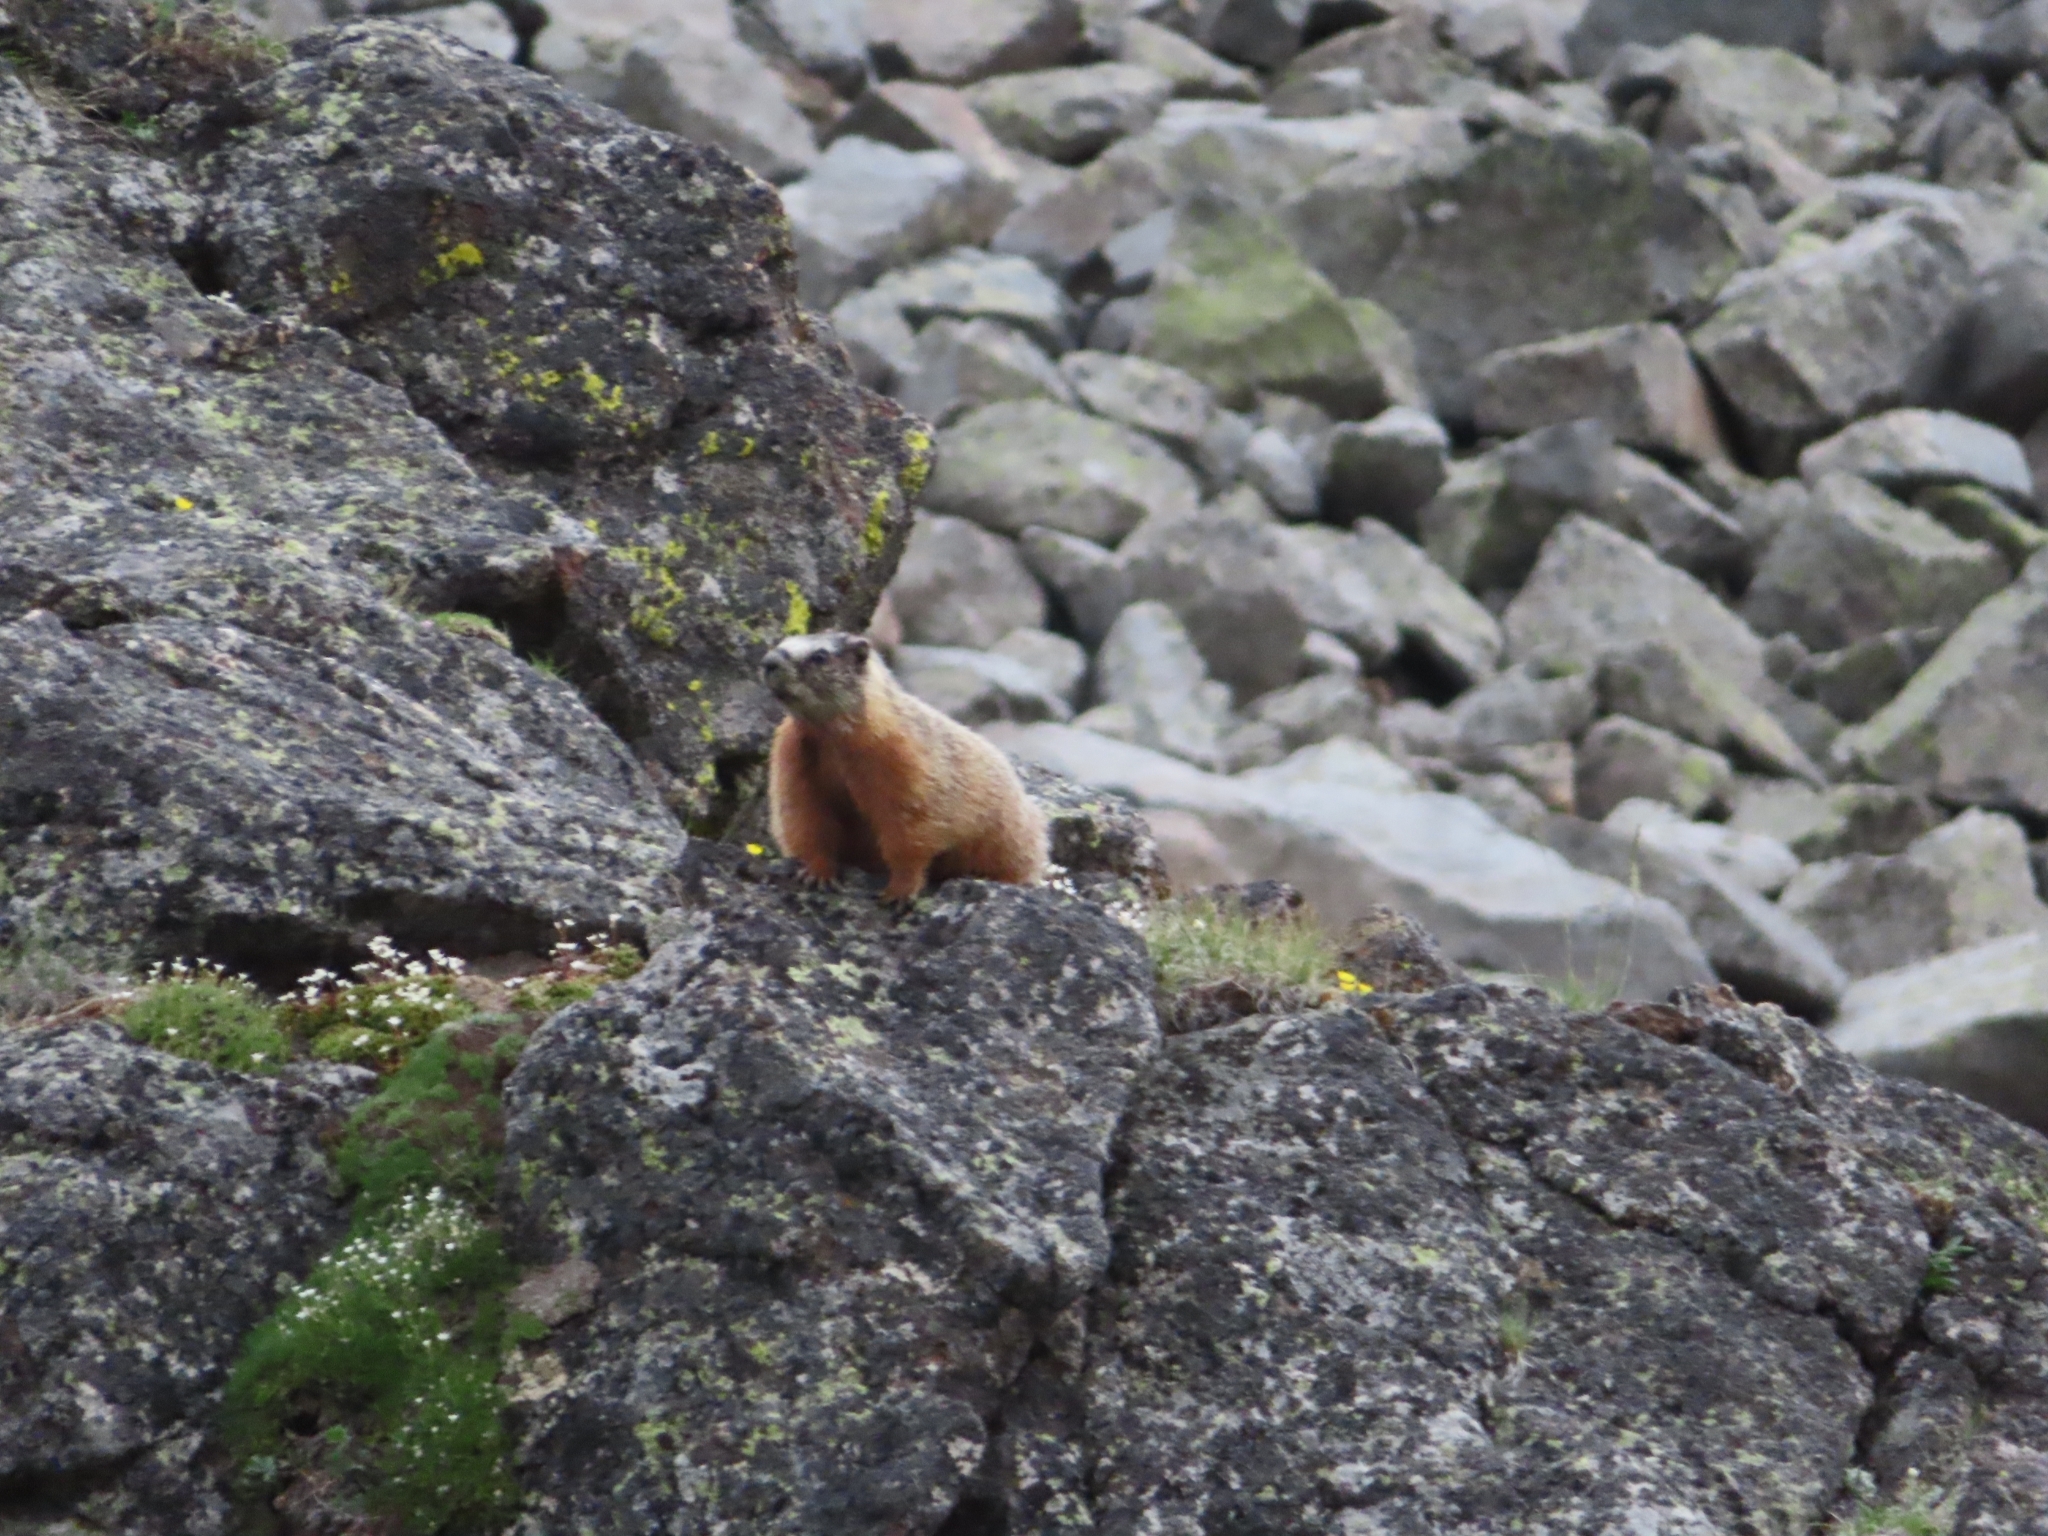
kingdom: Animalia
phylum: Chordata
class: Mammalia
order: Rodentia
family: Sciuridae
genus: Marmota
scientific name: Marmota flaviventris
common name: Yellow-bellied marmot
